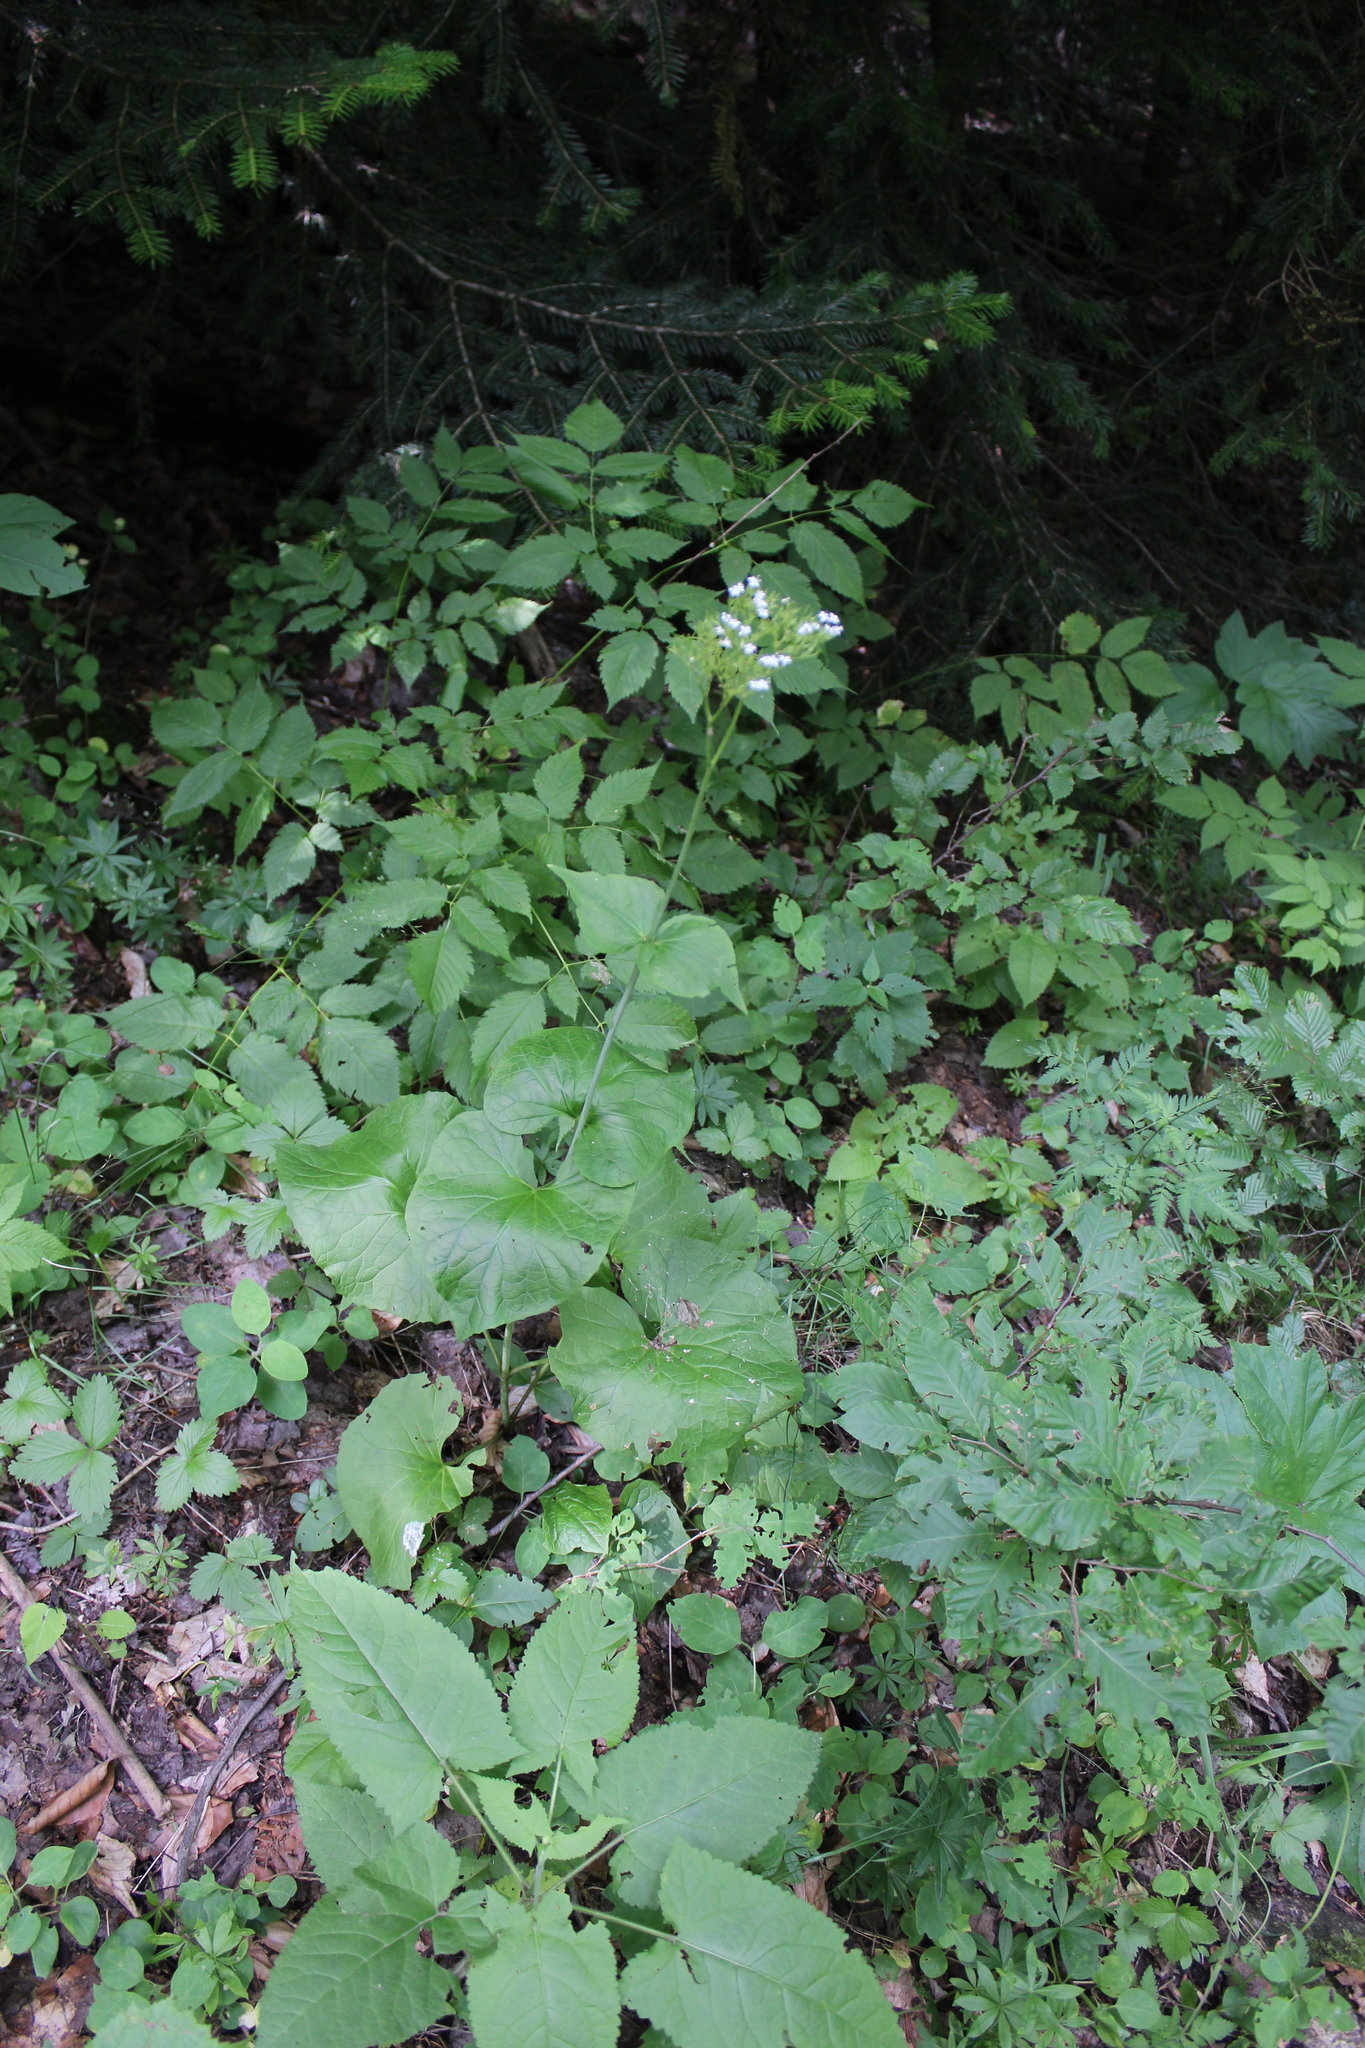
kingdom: Plantae
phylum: Tracheophyta
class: Magnoliopsida
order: Dipsacales
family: Caprifoliaceae
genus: Valeriana
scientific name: Valeriana alliariifolia
